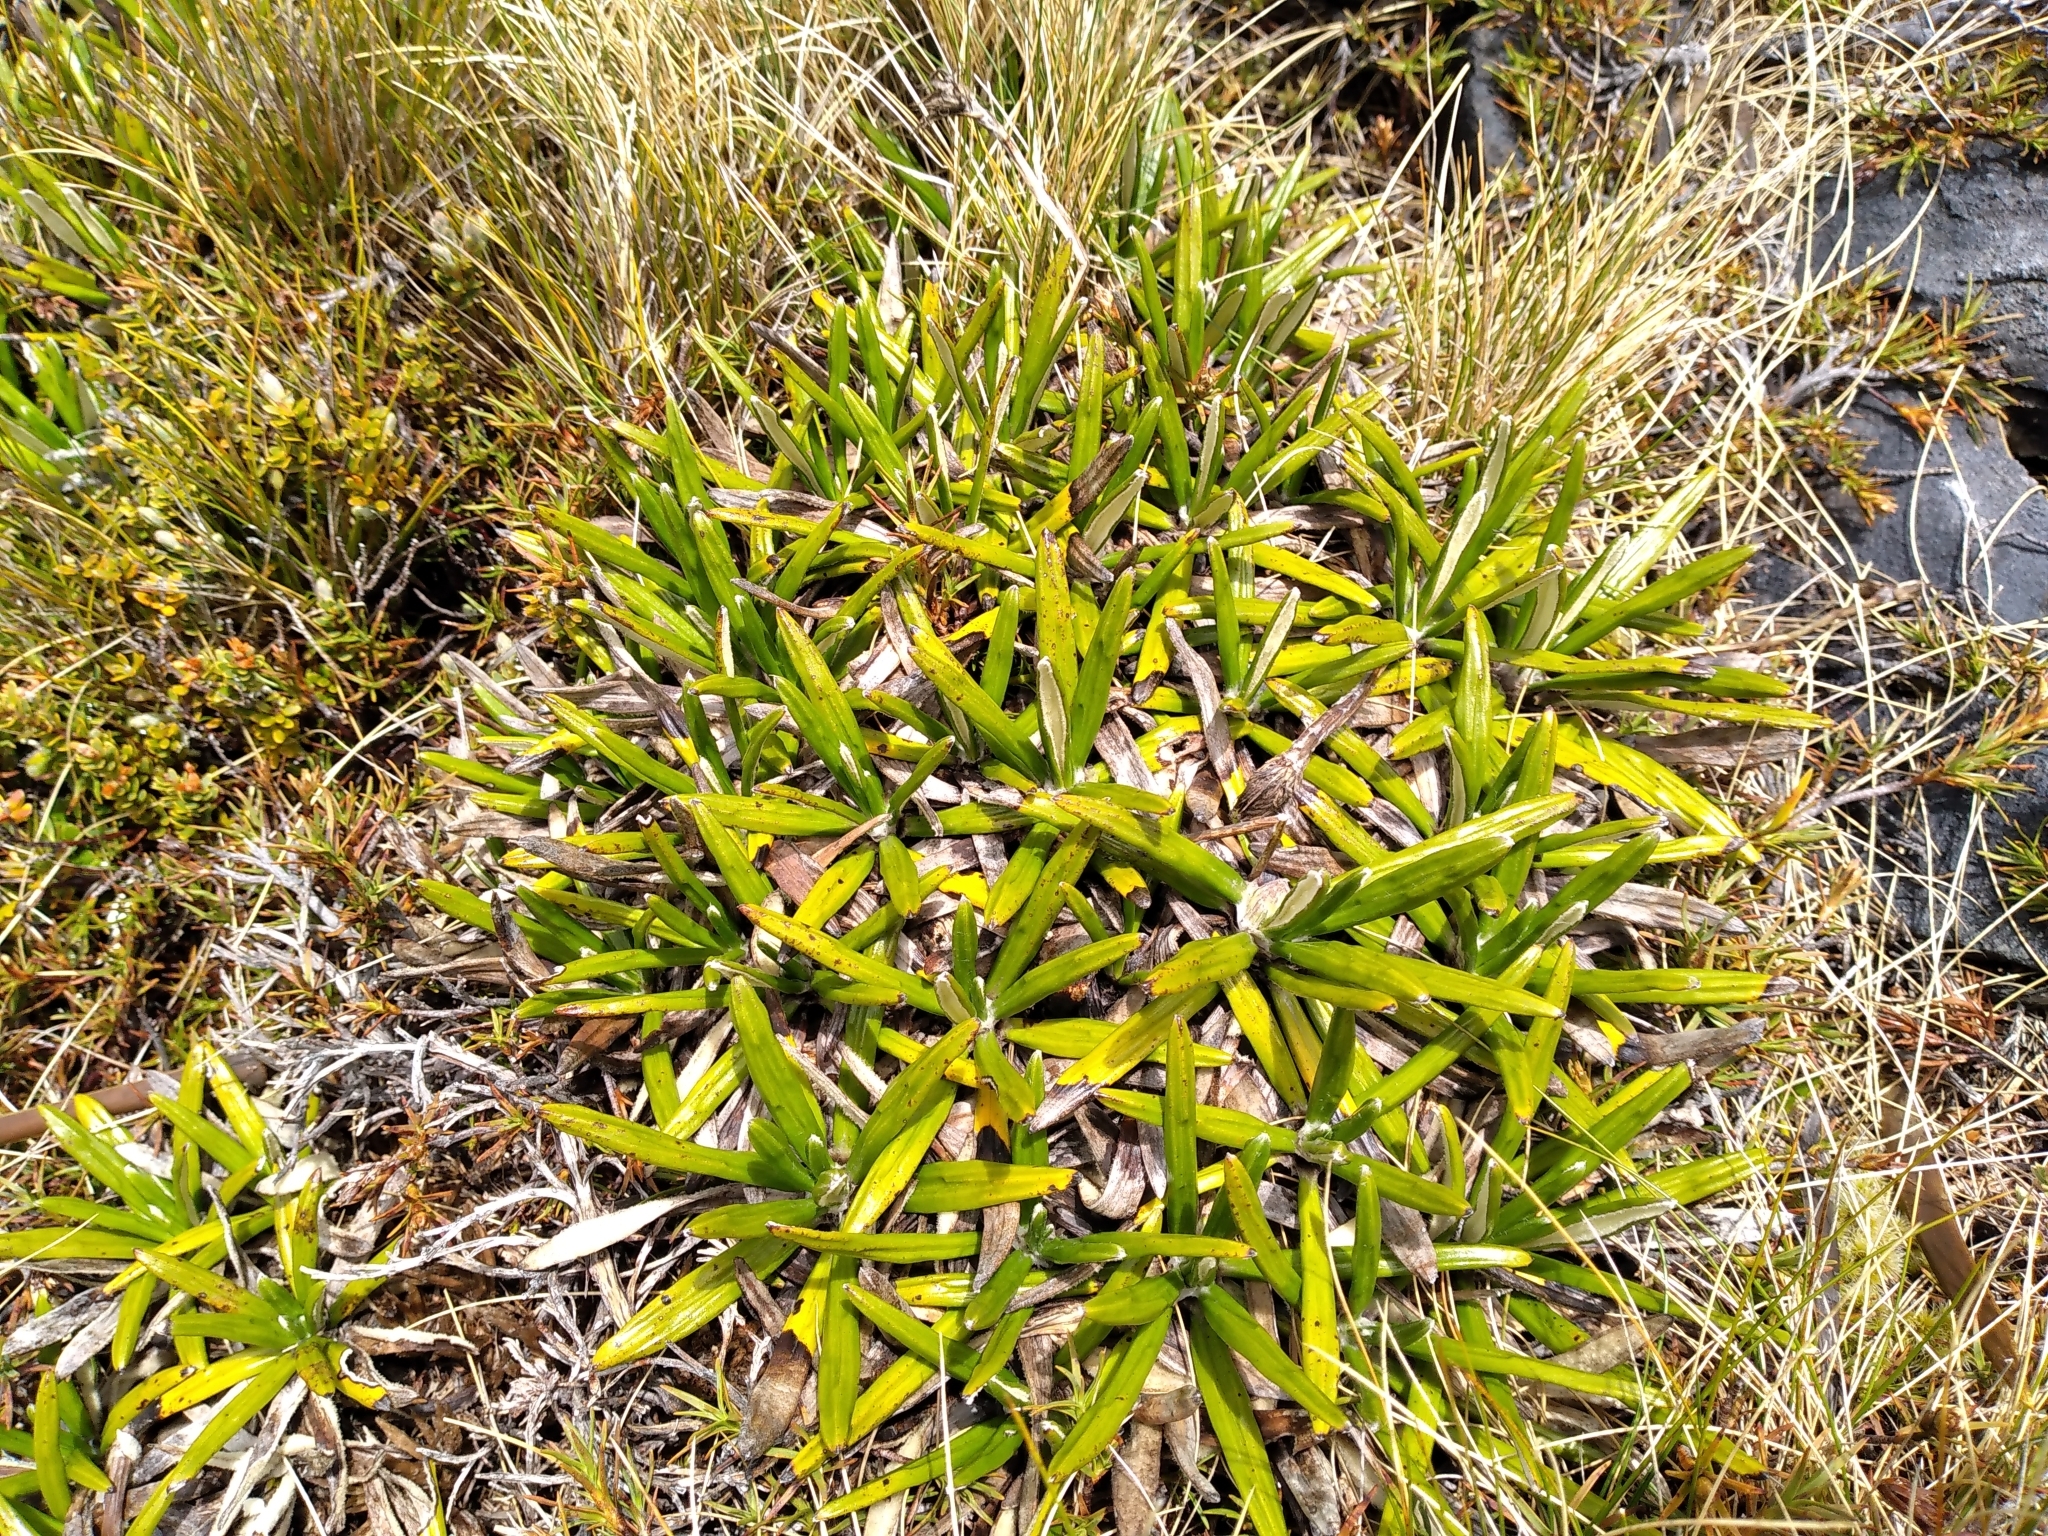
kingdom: Plantae
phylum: Tracheophyta
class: Magnoliopsida
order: Asterales
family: Asteraceae
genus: Celmisia
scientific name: Celmisia spectabilis
